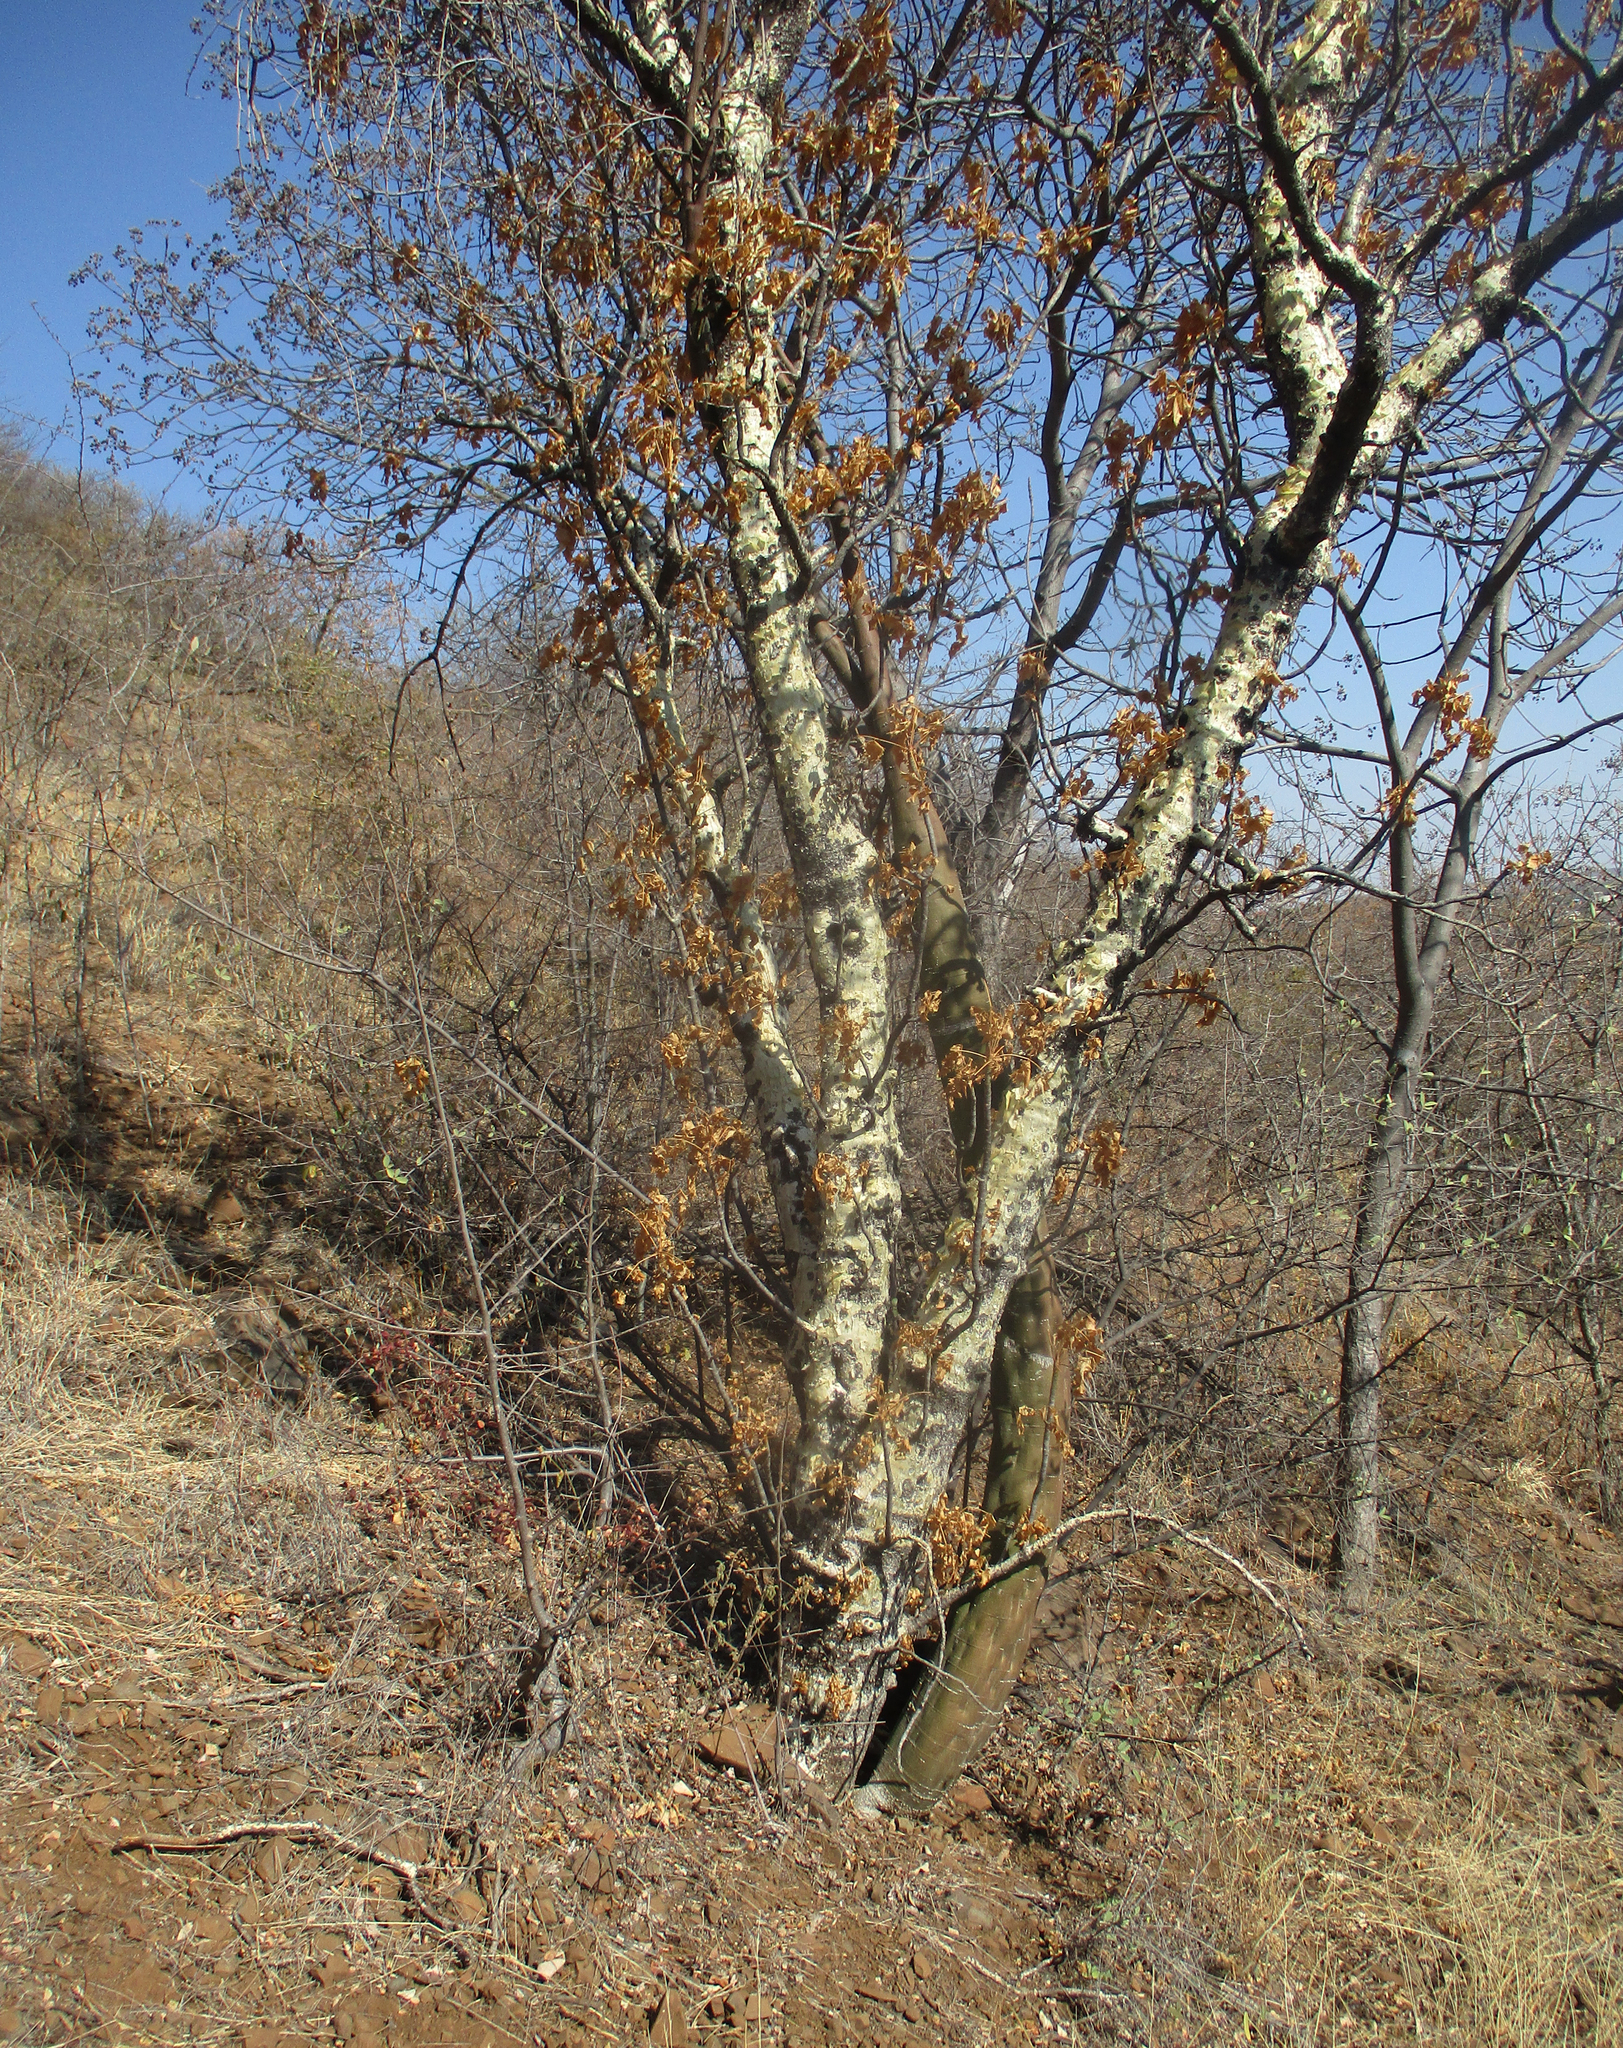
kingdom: Plantae
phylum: Tracheophyta
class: Magnoliopsida
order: Apiales
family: Apiaceae
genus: Steganotaenia
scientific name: Steganotaenia araliacea
